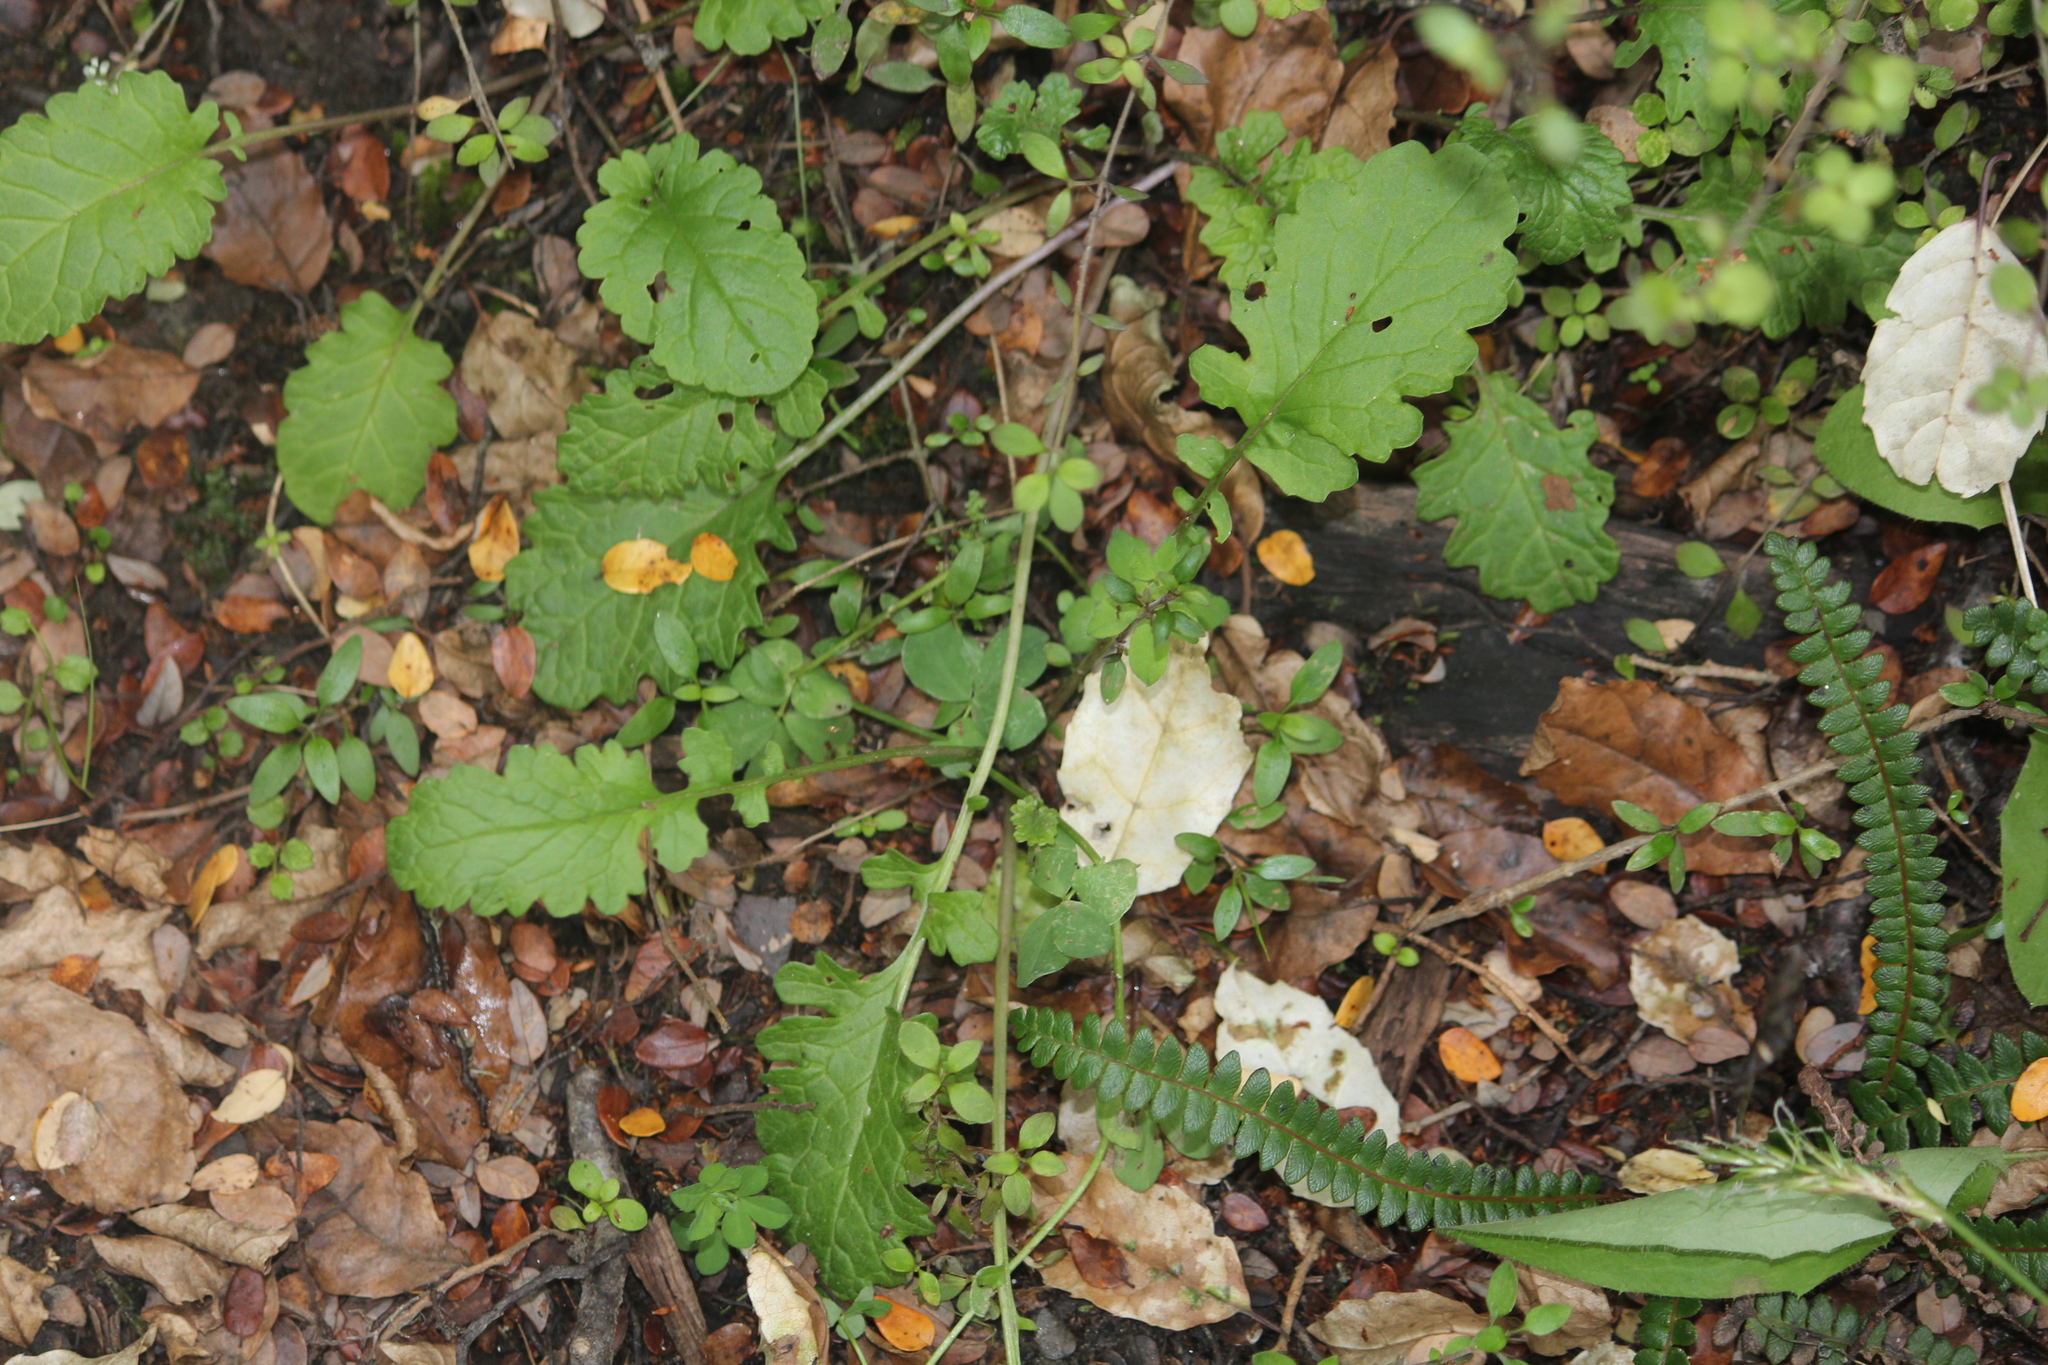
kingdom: Plantae
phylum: Tracheophyta
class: Magnoliopsida
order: Asterales
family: Asteraceae
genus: Jacobaea
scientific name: Jacobaea vulgaris
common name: Stinking willie
